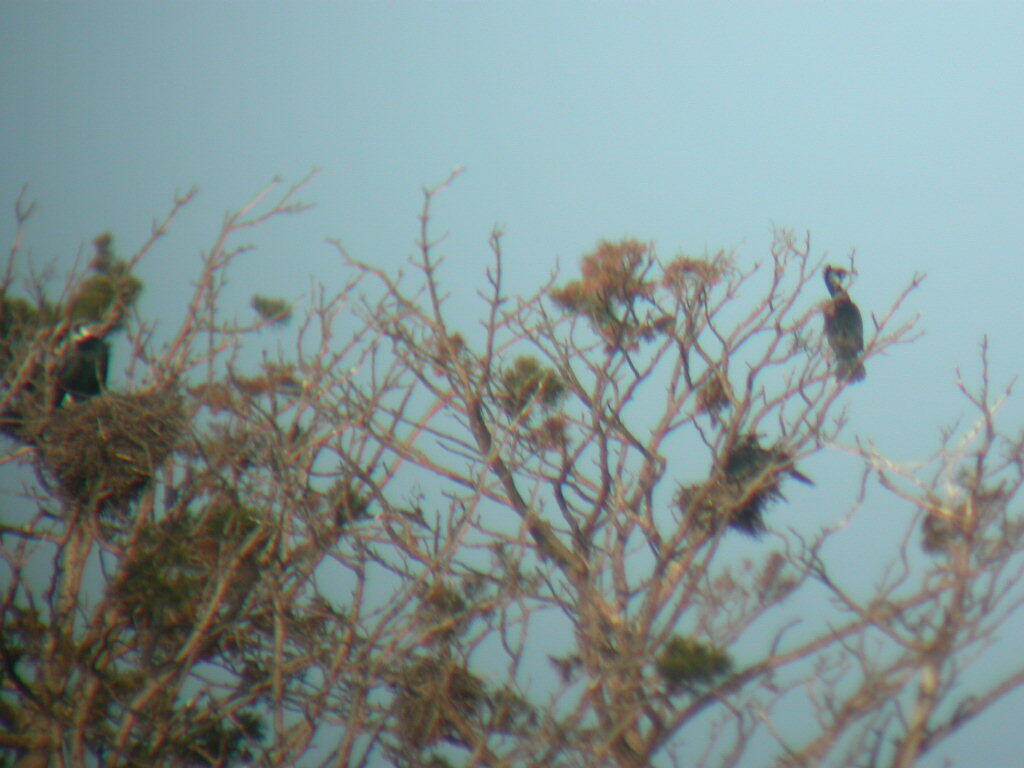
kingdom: Animalia
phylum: Chordata
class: Aves
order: Suliformes
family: Phalacrocoracidae
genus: Phalacrocorax
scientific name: Phalacrocorax carbo
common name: Great cormorant
